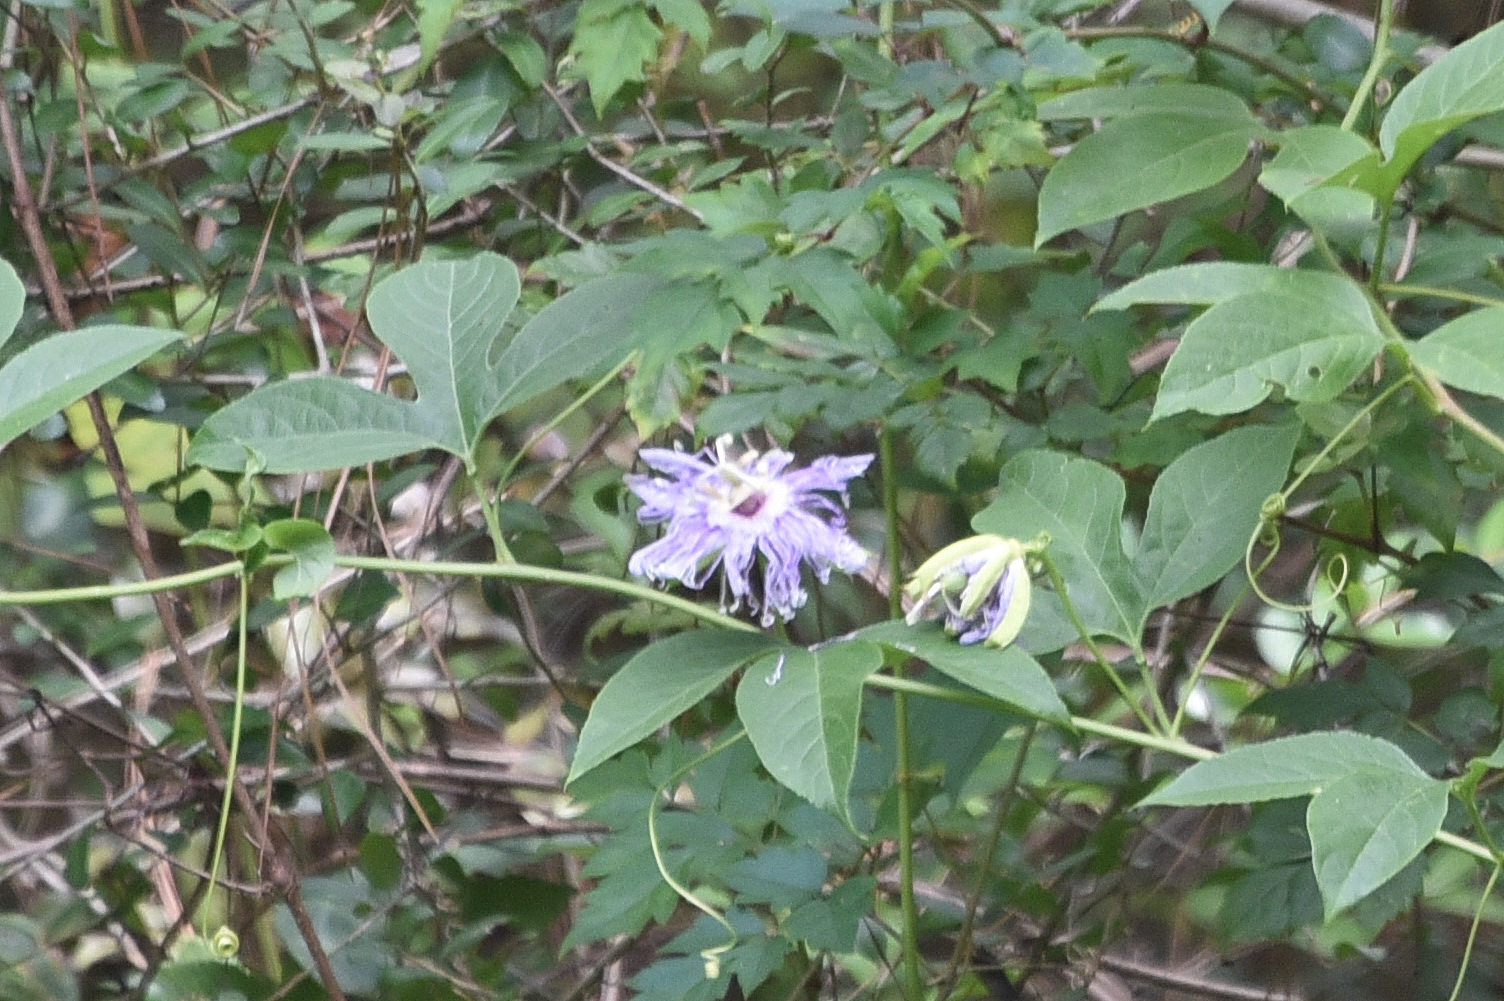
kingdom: Plantae
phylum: Tracheophyta
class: Magnoliopsida
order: Malpighiales
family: Passifloraceae
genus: Passiflora
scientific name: Passiflora incarnata
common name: Apricot-vine
